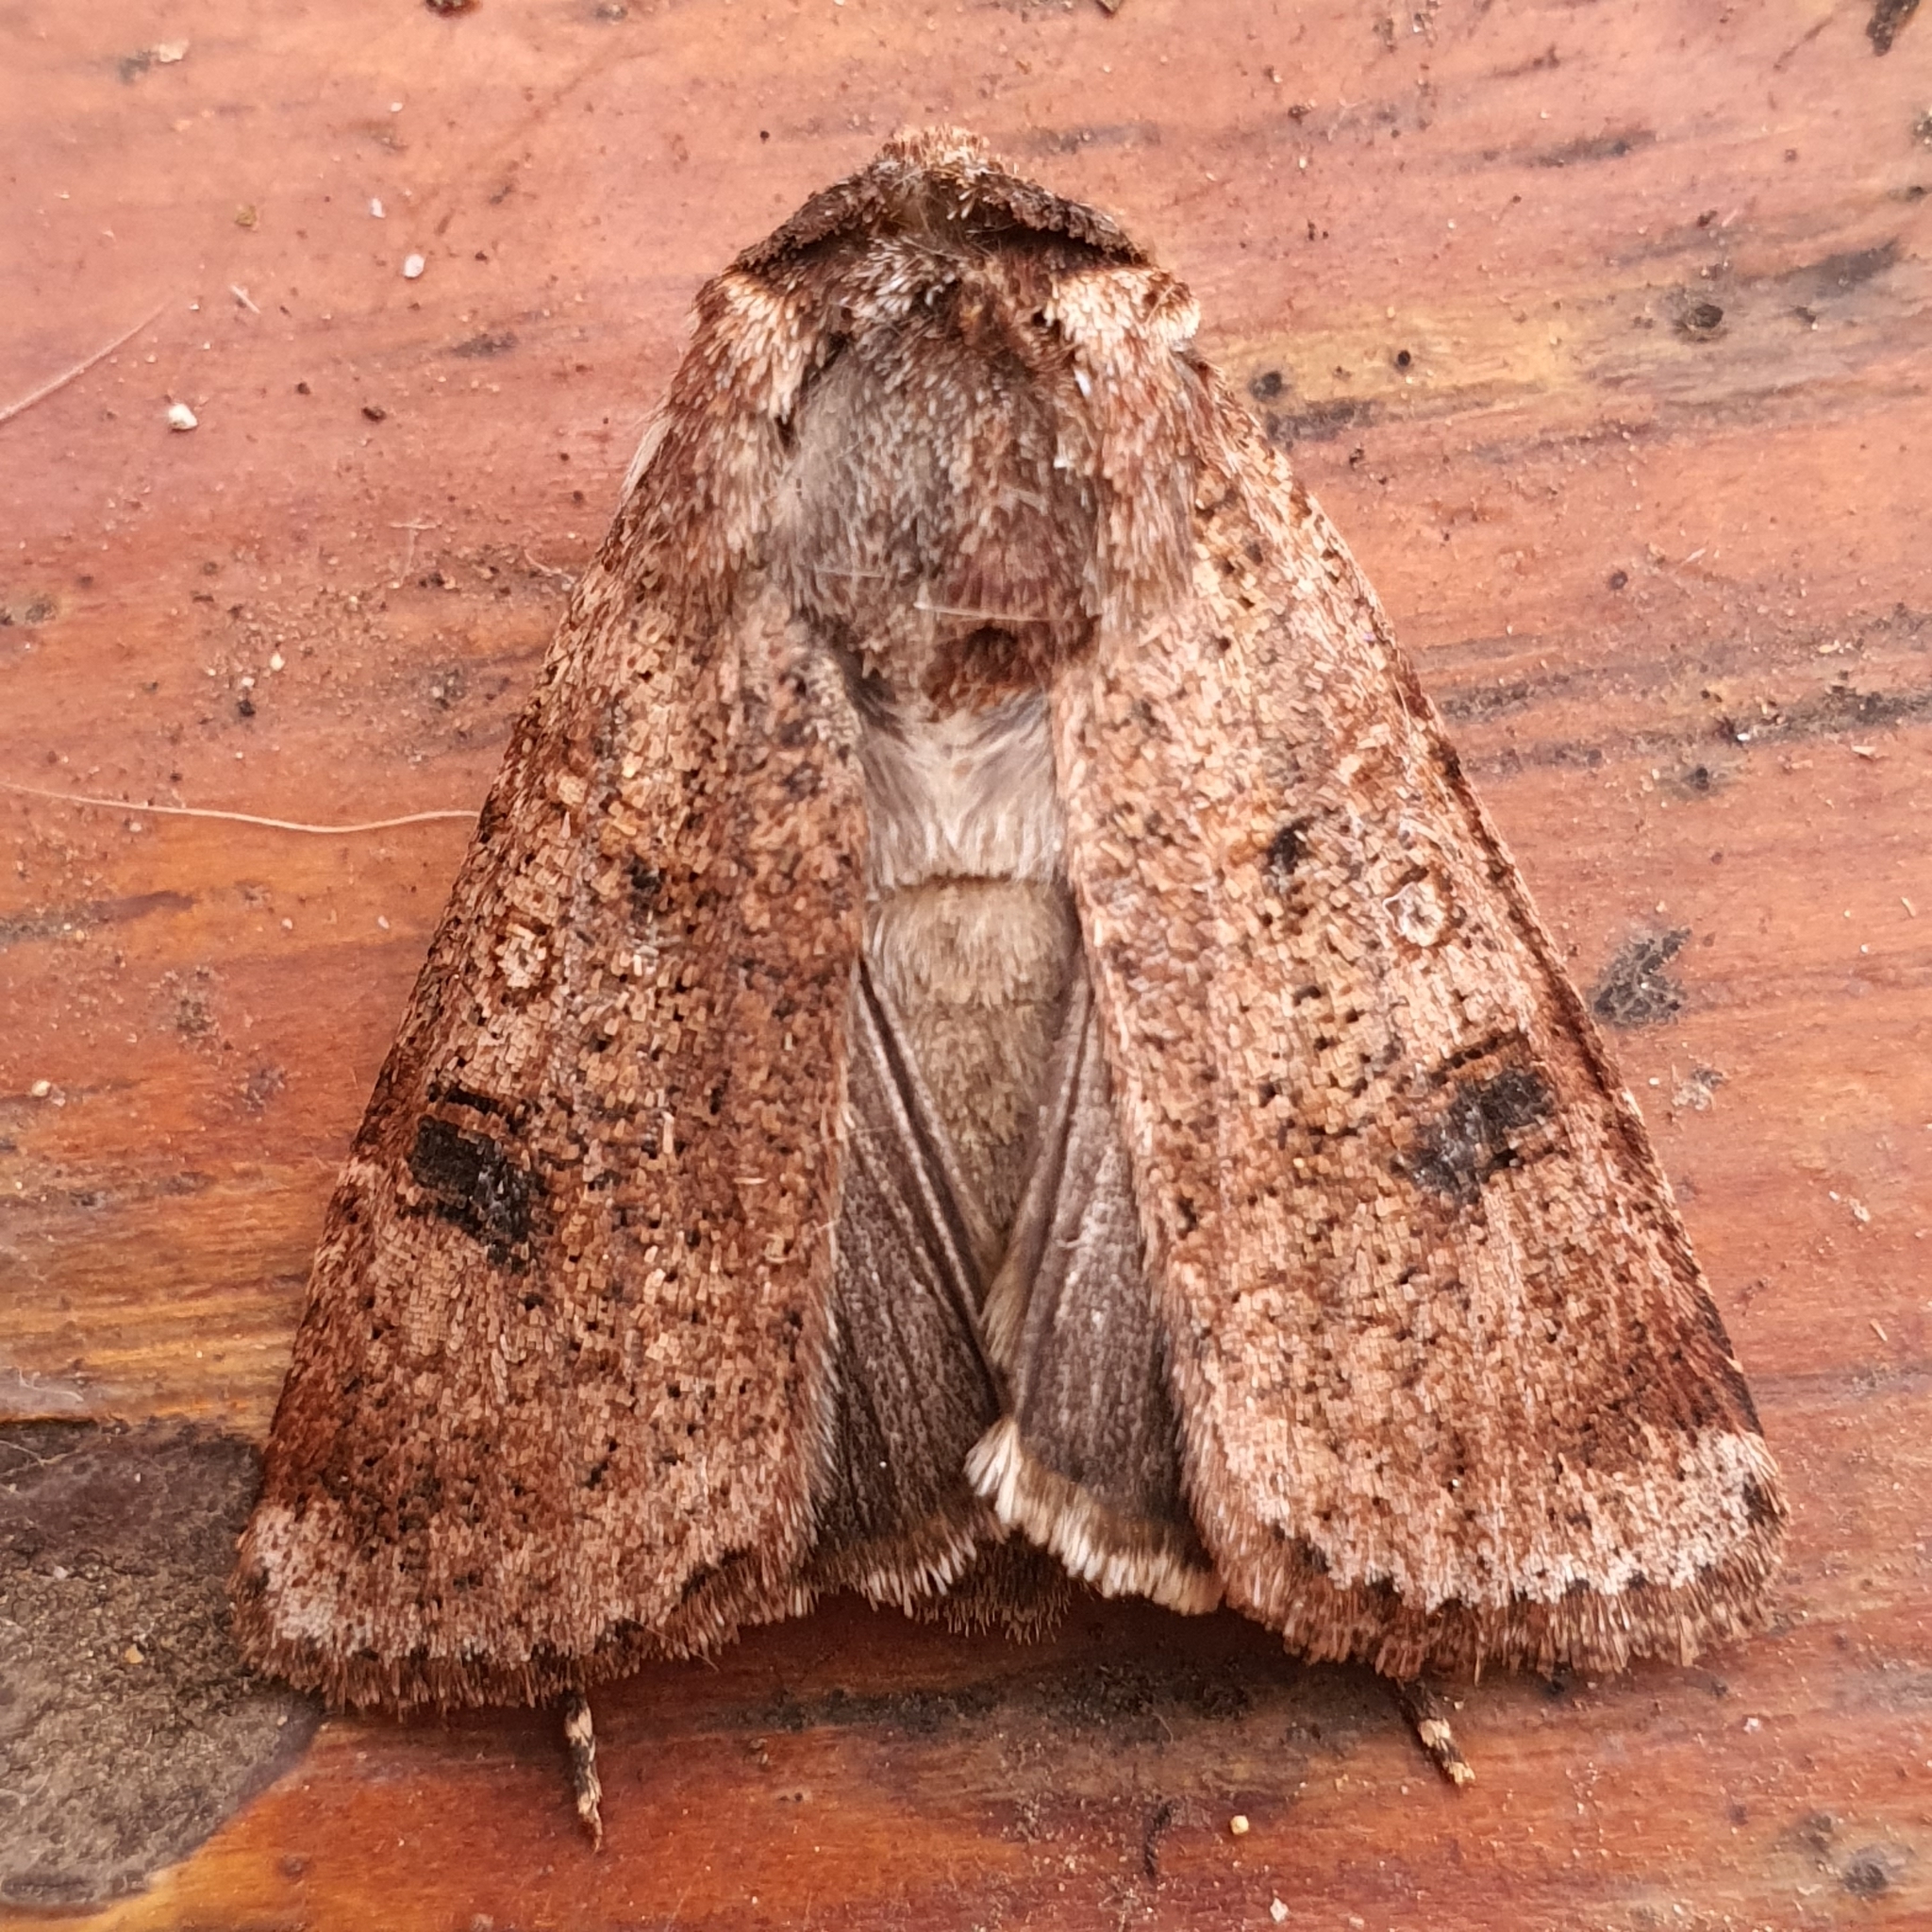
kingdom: Animalia
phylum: Arthropoda
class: Insecta
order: Lepidoptera
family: Noctuidae
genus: Agrotis
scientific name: Agrotis porphyricollis
